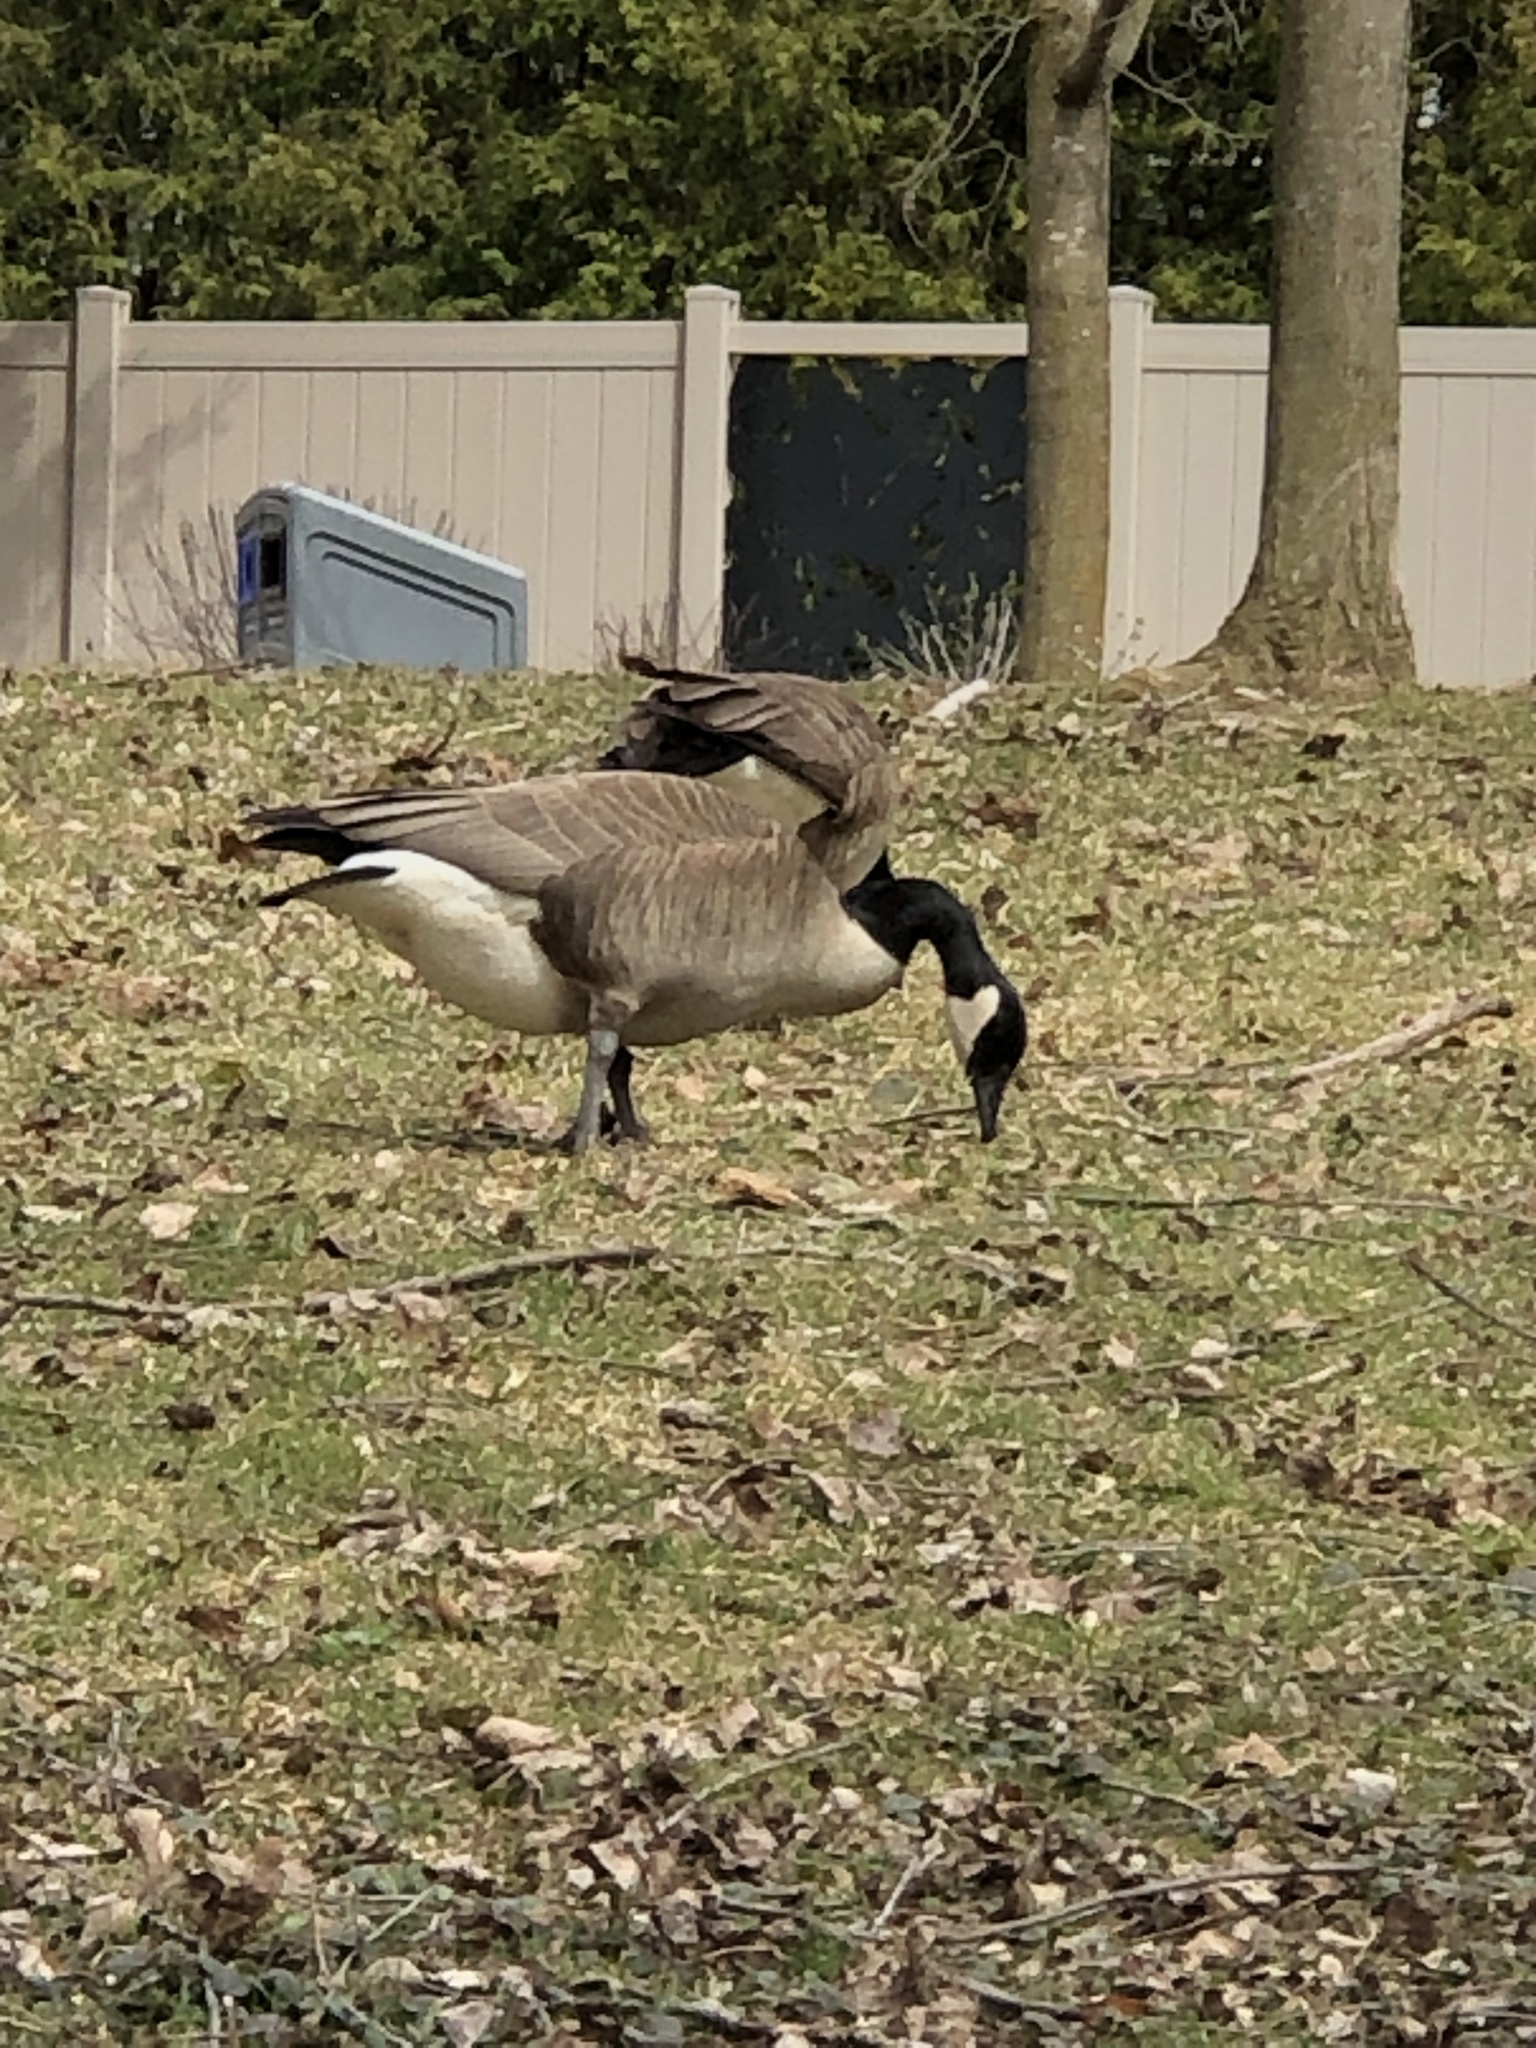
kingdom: Animalia
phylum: Chordata
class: Aves
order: Anseriformes
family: Anatidae
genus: Branta
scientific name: Branta canadensis
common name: Canada goose
